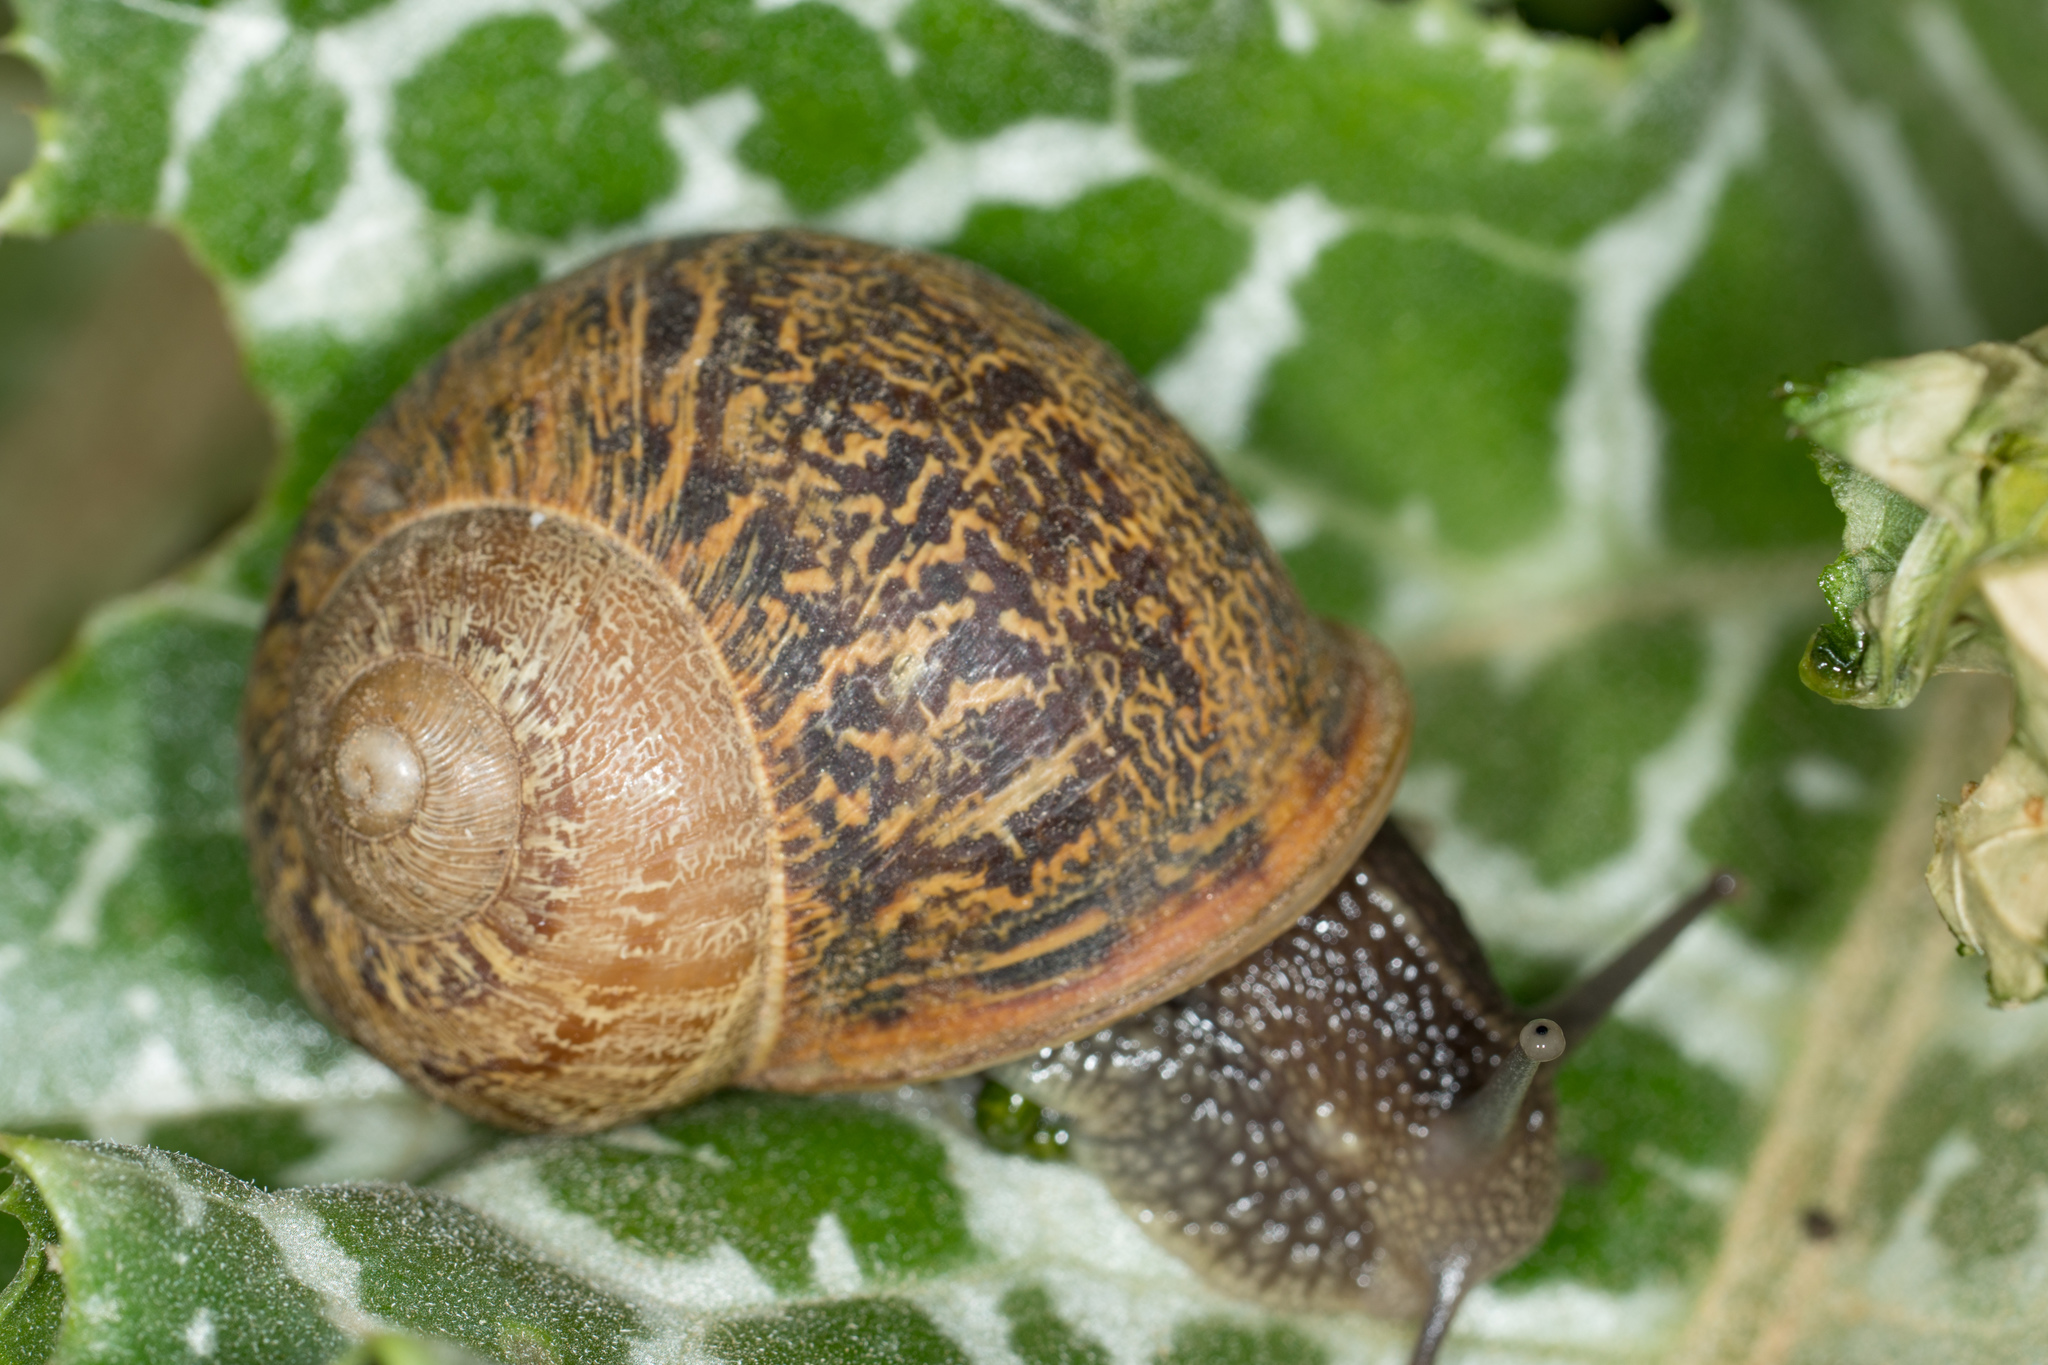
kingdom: Animalia
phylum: Mollusca
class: Gastropoda
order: Stylommatophora
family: Helicidae
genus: Cornu
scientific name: Cornu aspersum
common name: Brown garden snail
